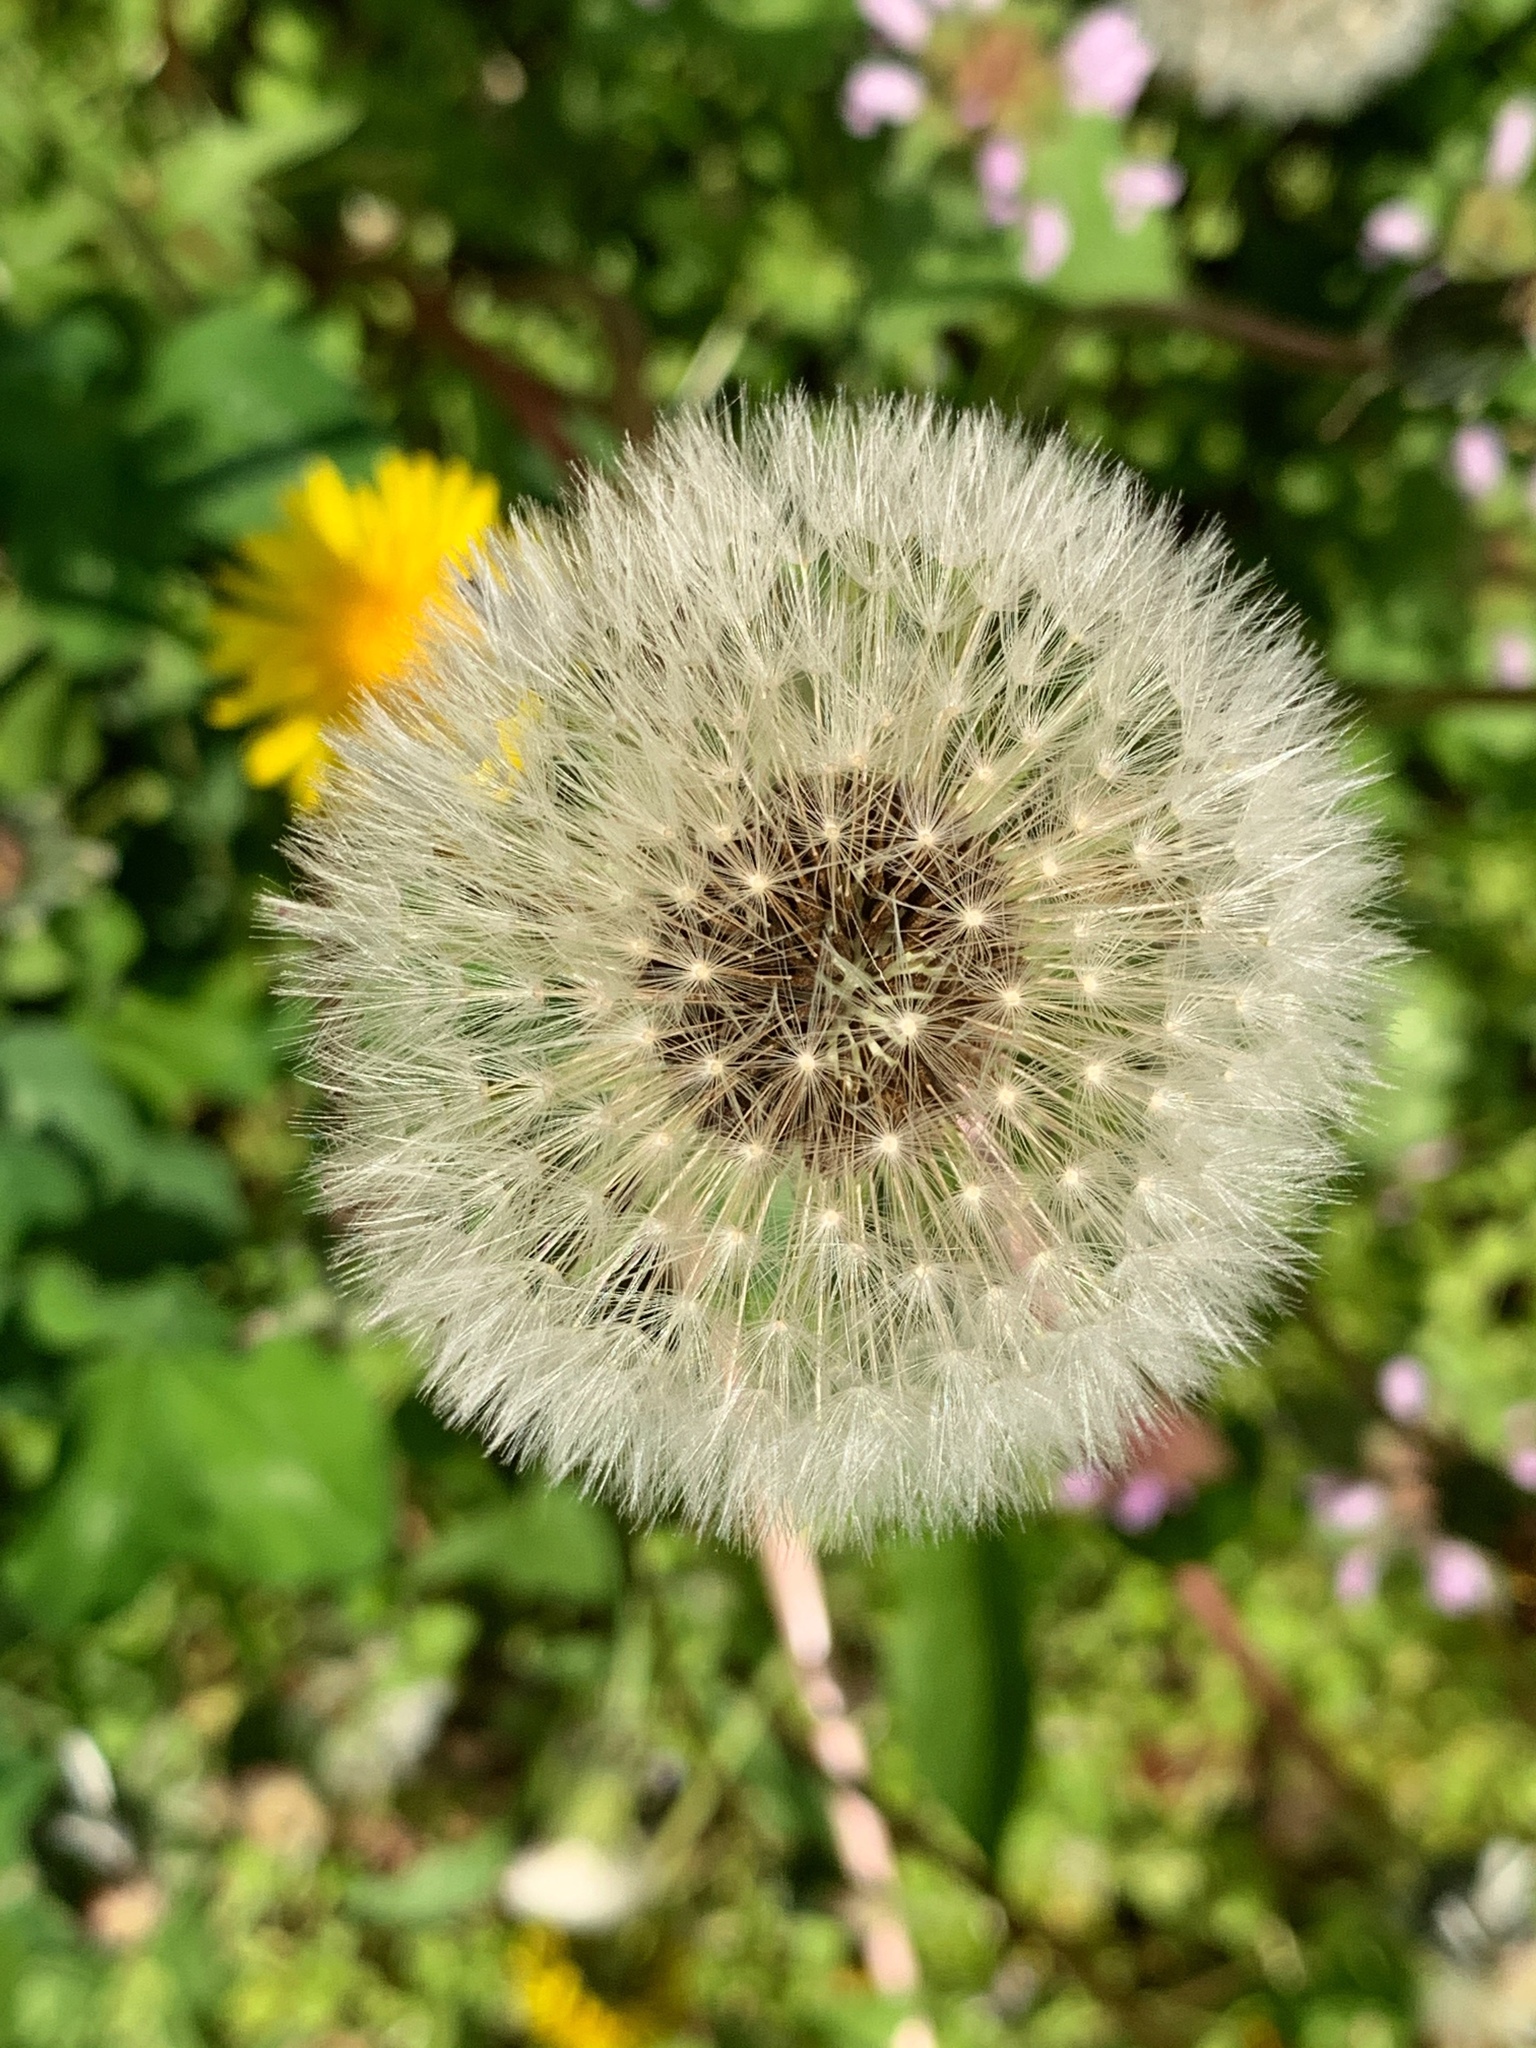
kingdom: Plantae
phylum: Tracheophyta
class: Magnoliopsida
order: Asterales
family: Asteraceae
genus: Taraxacum
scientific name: Taraxacum officinale
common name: Common dandelion
